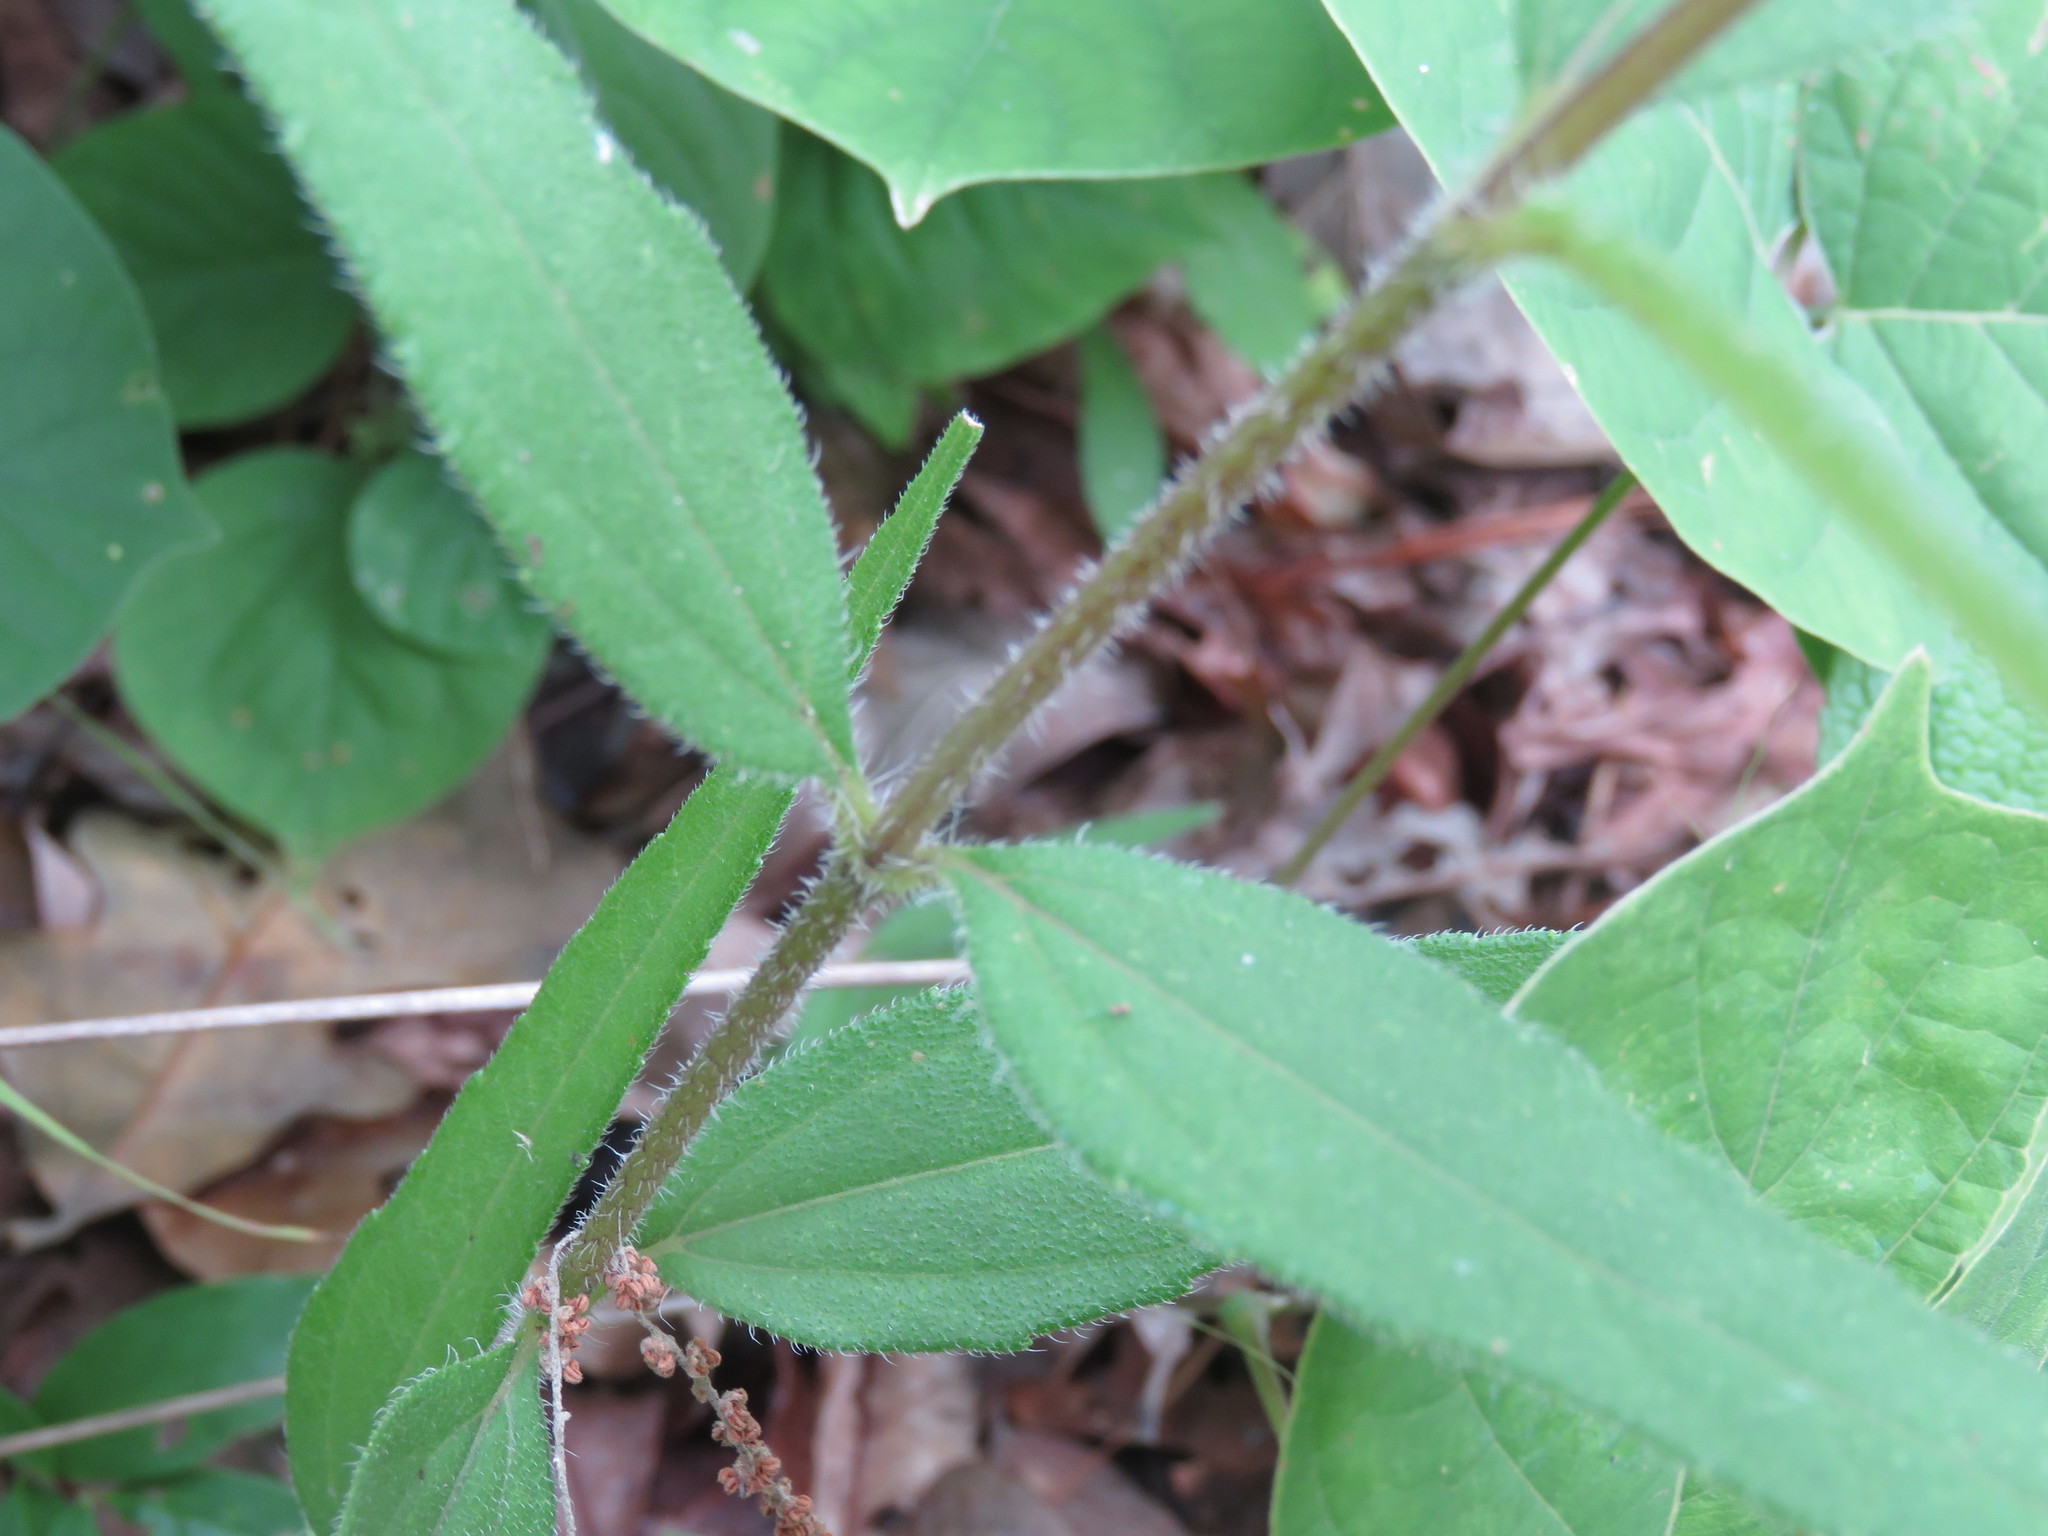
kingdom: Plantae
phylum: Tracheophyta
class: Magnoliopsida
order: Asterales
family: Asteraceae
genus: Helianthus
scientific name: Helianthus hirsutus
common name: Hairy sunflower
